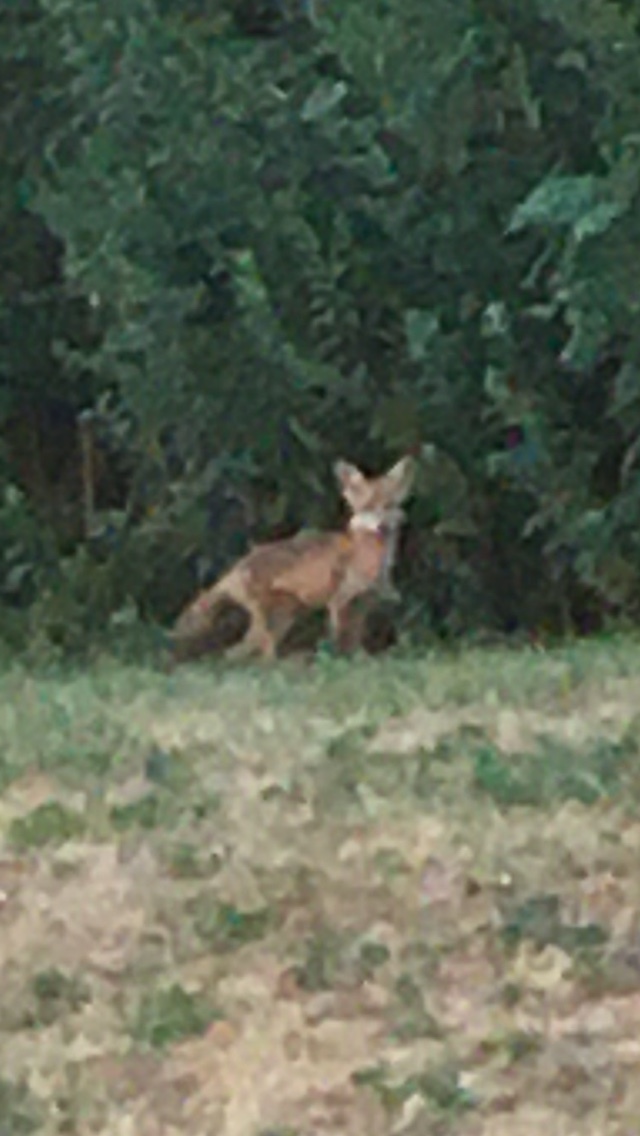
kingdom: Animalia
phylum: Chordata
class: Mammalia
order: Carnivora
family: Canidae
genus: Vulpes
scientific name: Vulpes vulpes
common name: Red fox
